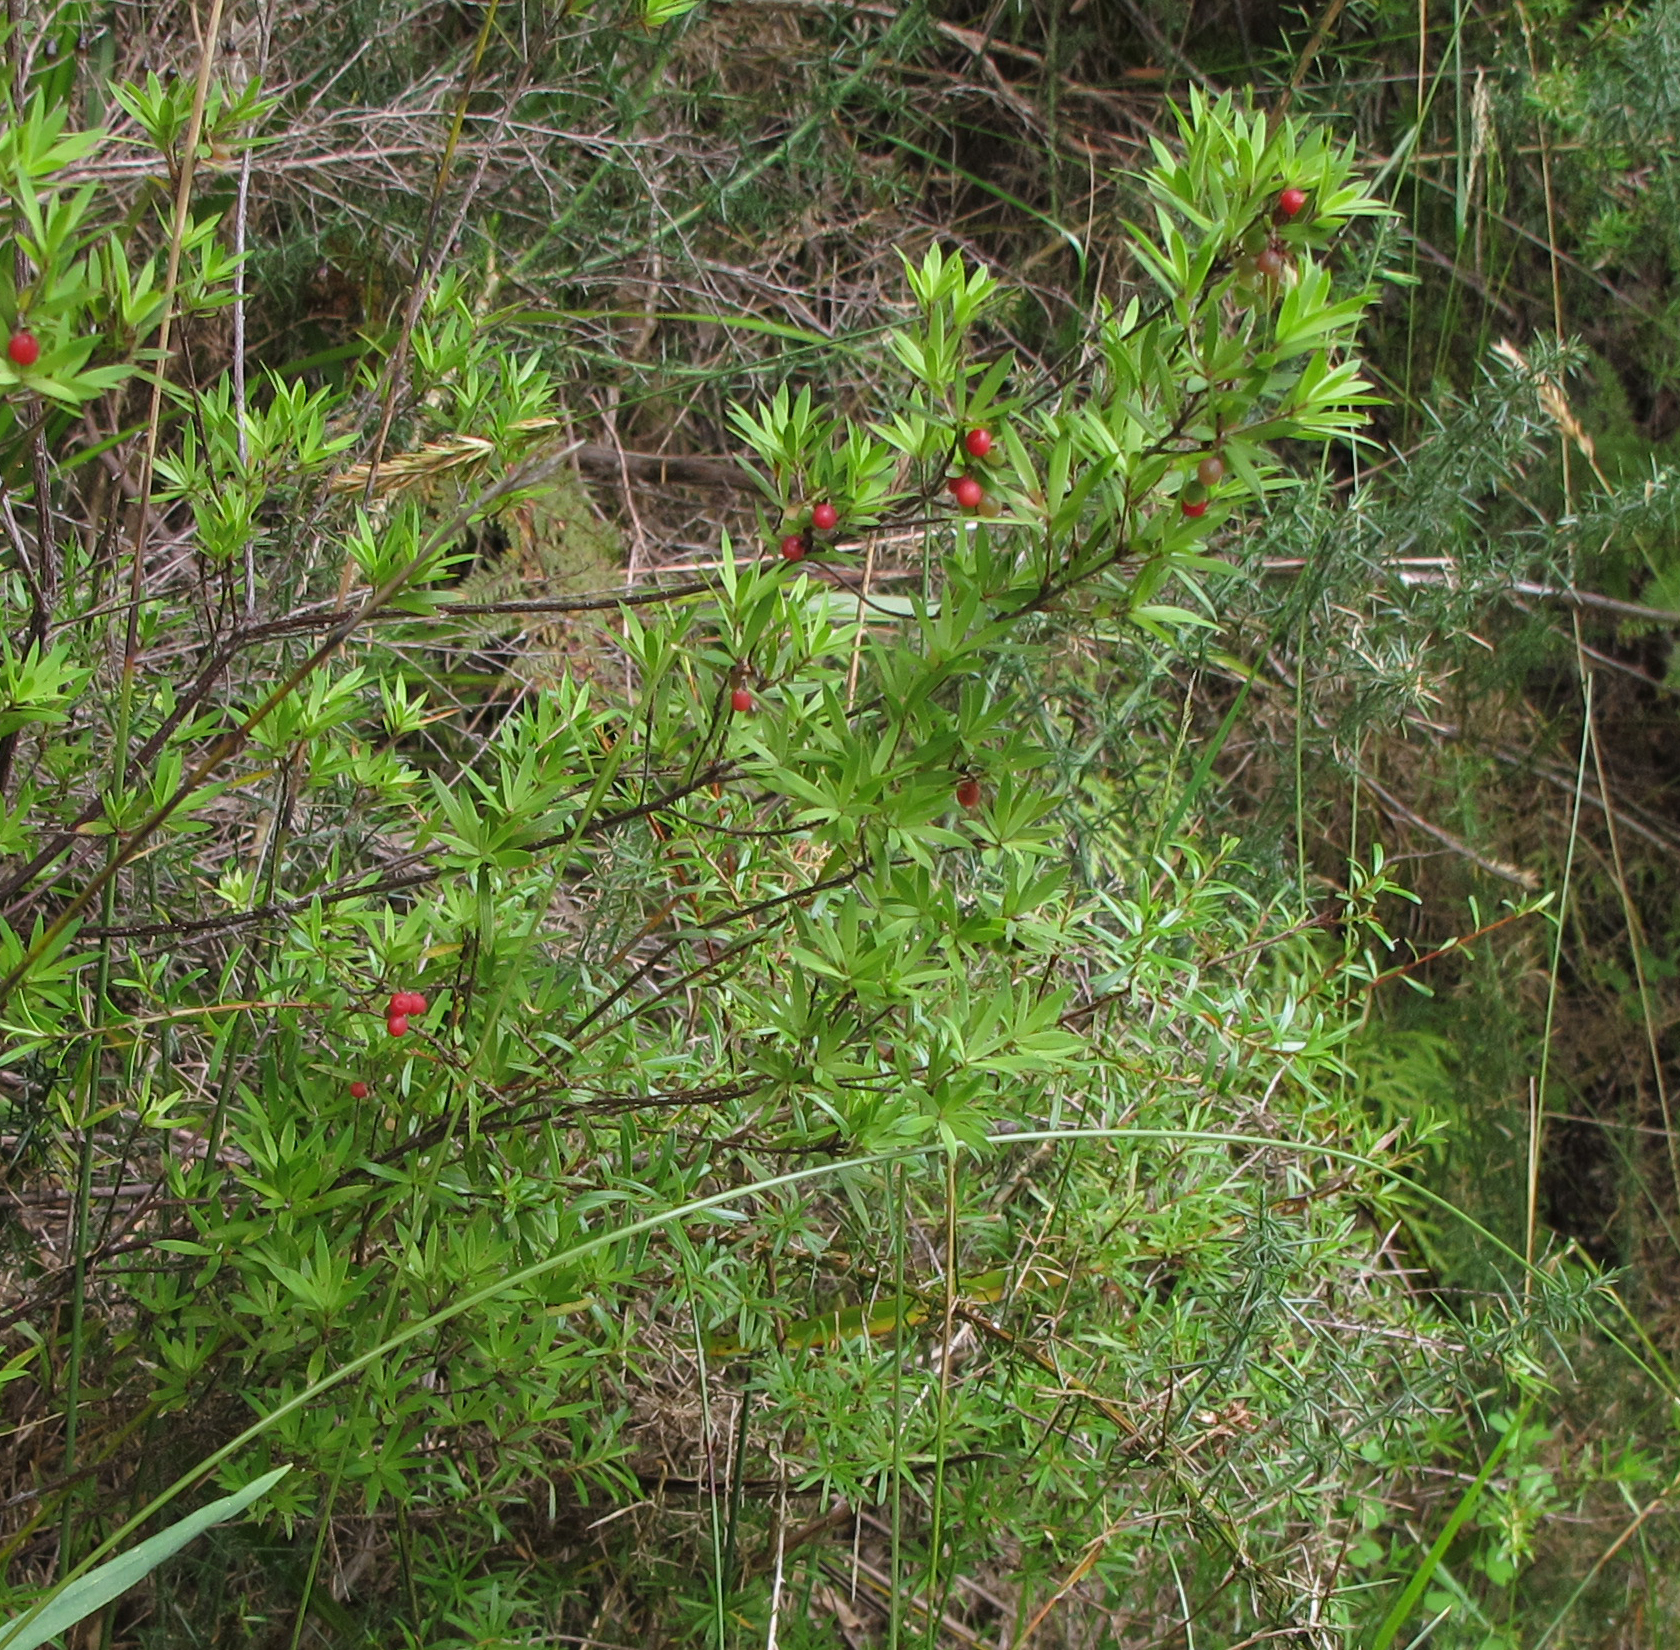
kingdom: Plantae
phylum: Tracheophyta
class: Magnoliopsida
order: Ericales
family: Ericaceae
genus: Leucopogon
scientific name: Leucopogon fasciculatus
